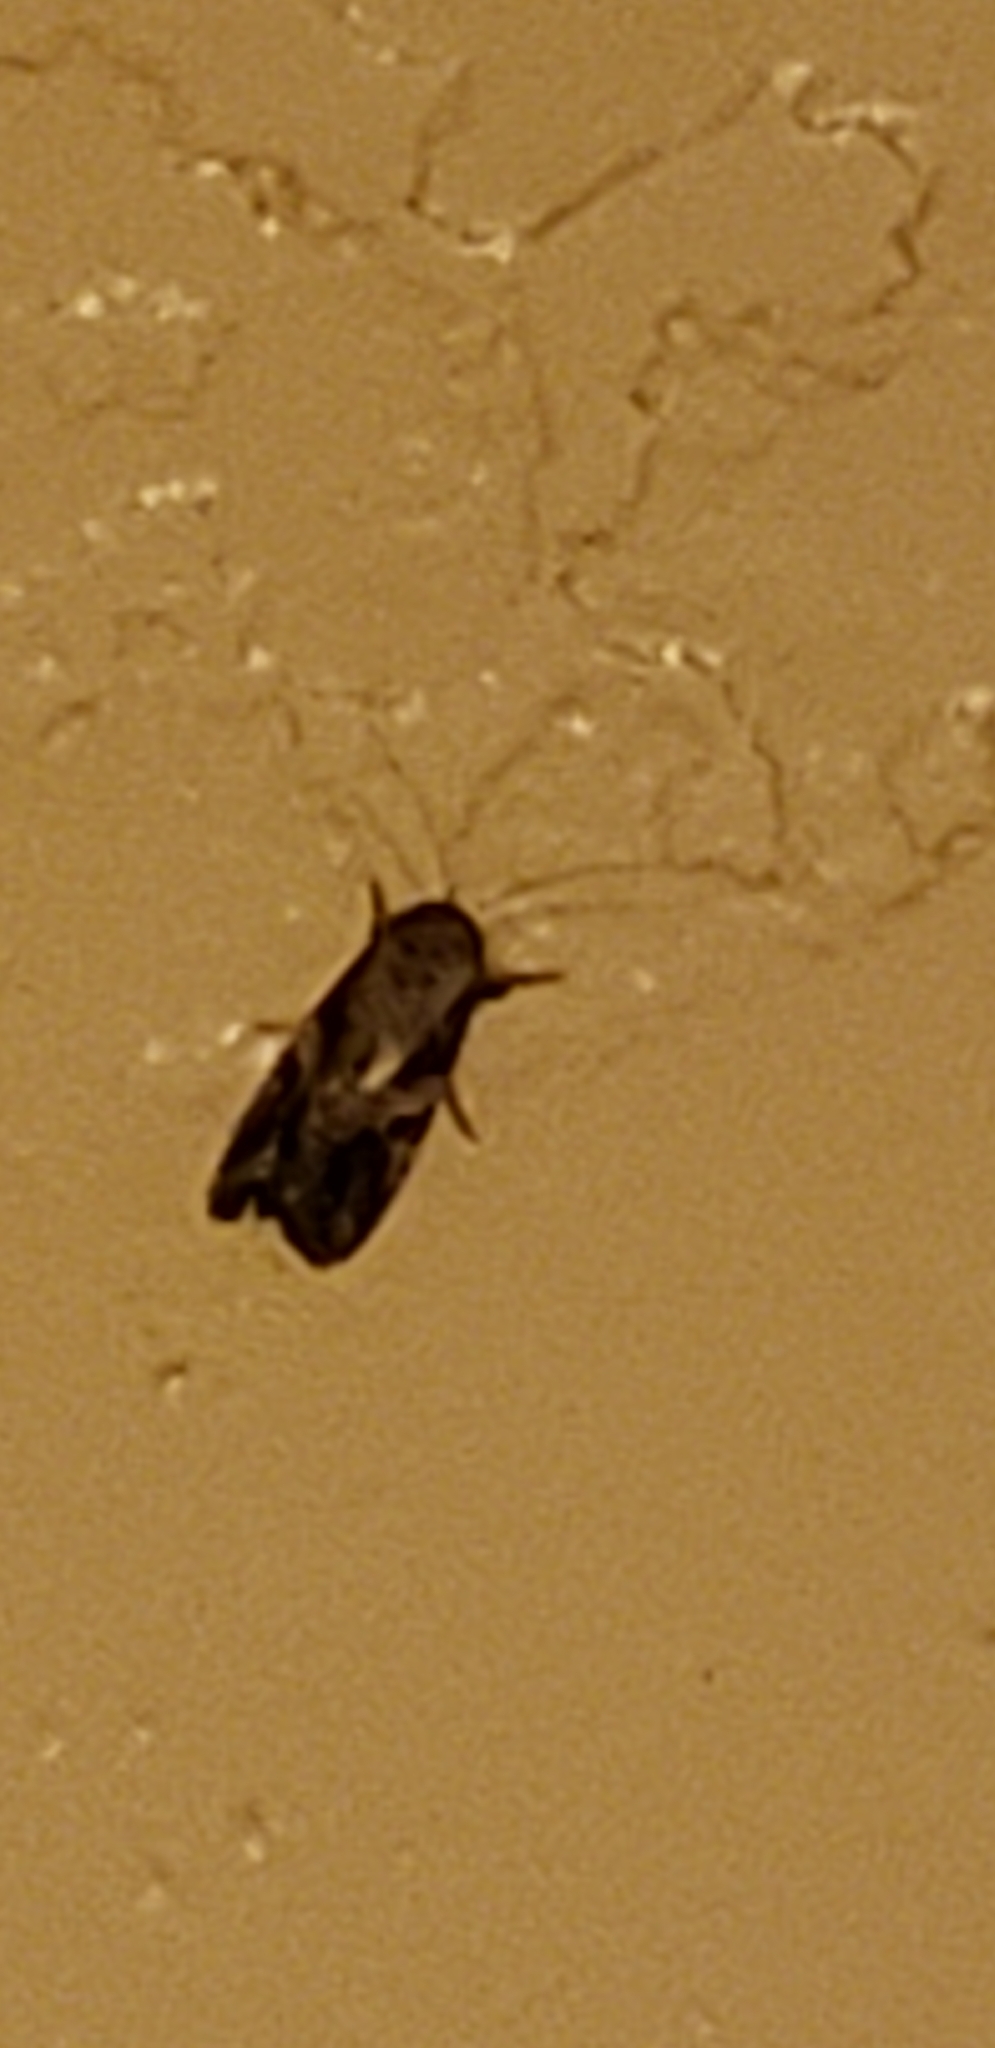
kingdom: Animalia
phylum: Arthropoda
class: Insecta
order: Lepidoptera
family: Noctuidae
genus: Spodoptera
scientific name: Spodoptera frugiperda
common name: Fall armyworm
